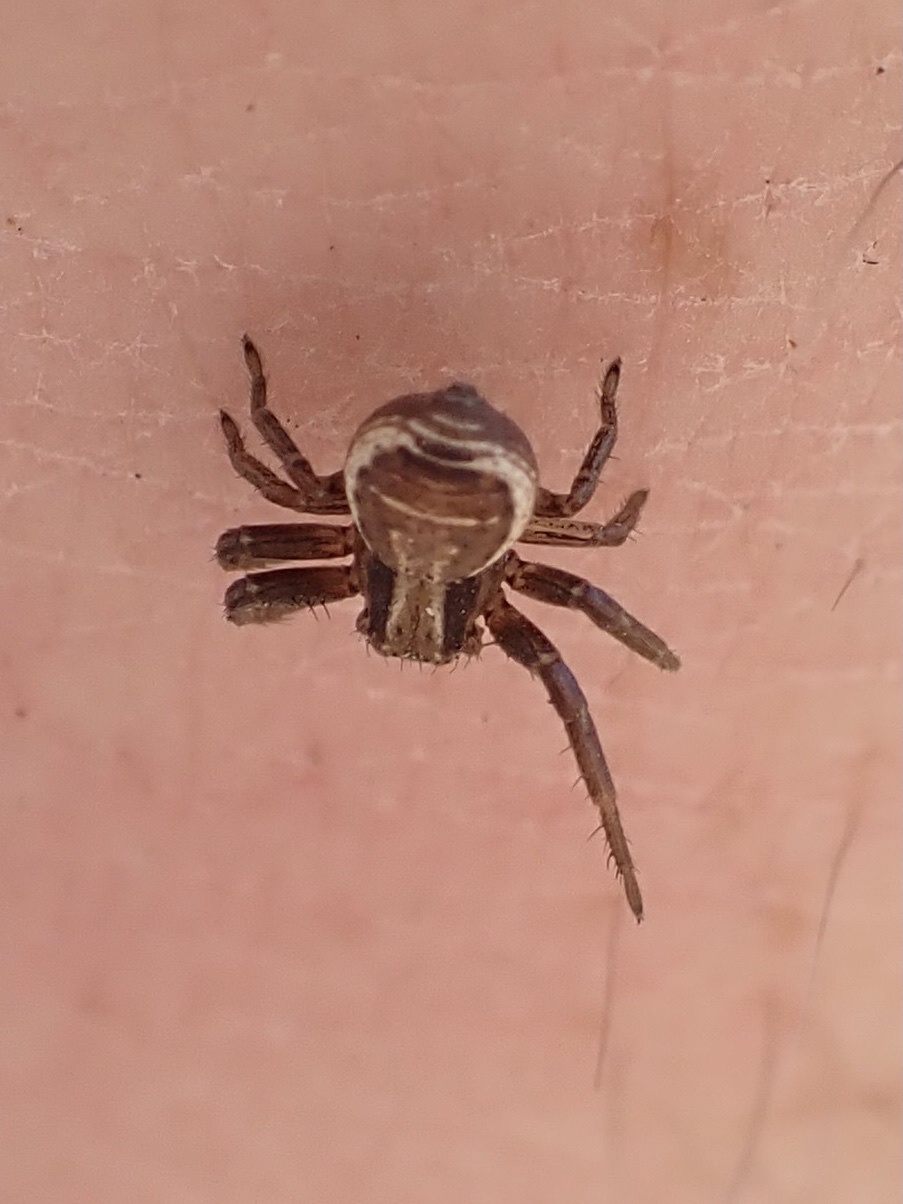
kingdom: Animalia
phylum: Arthropoda
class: Arachnida
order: Araneae
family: Thomisidae
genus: Xysticus
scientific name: Xysticus ulmi
